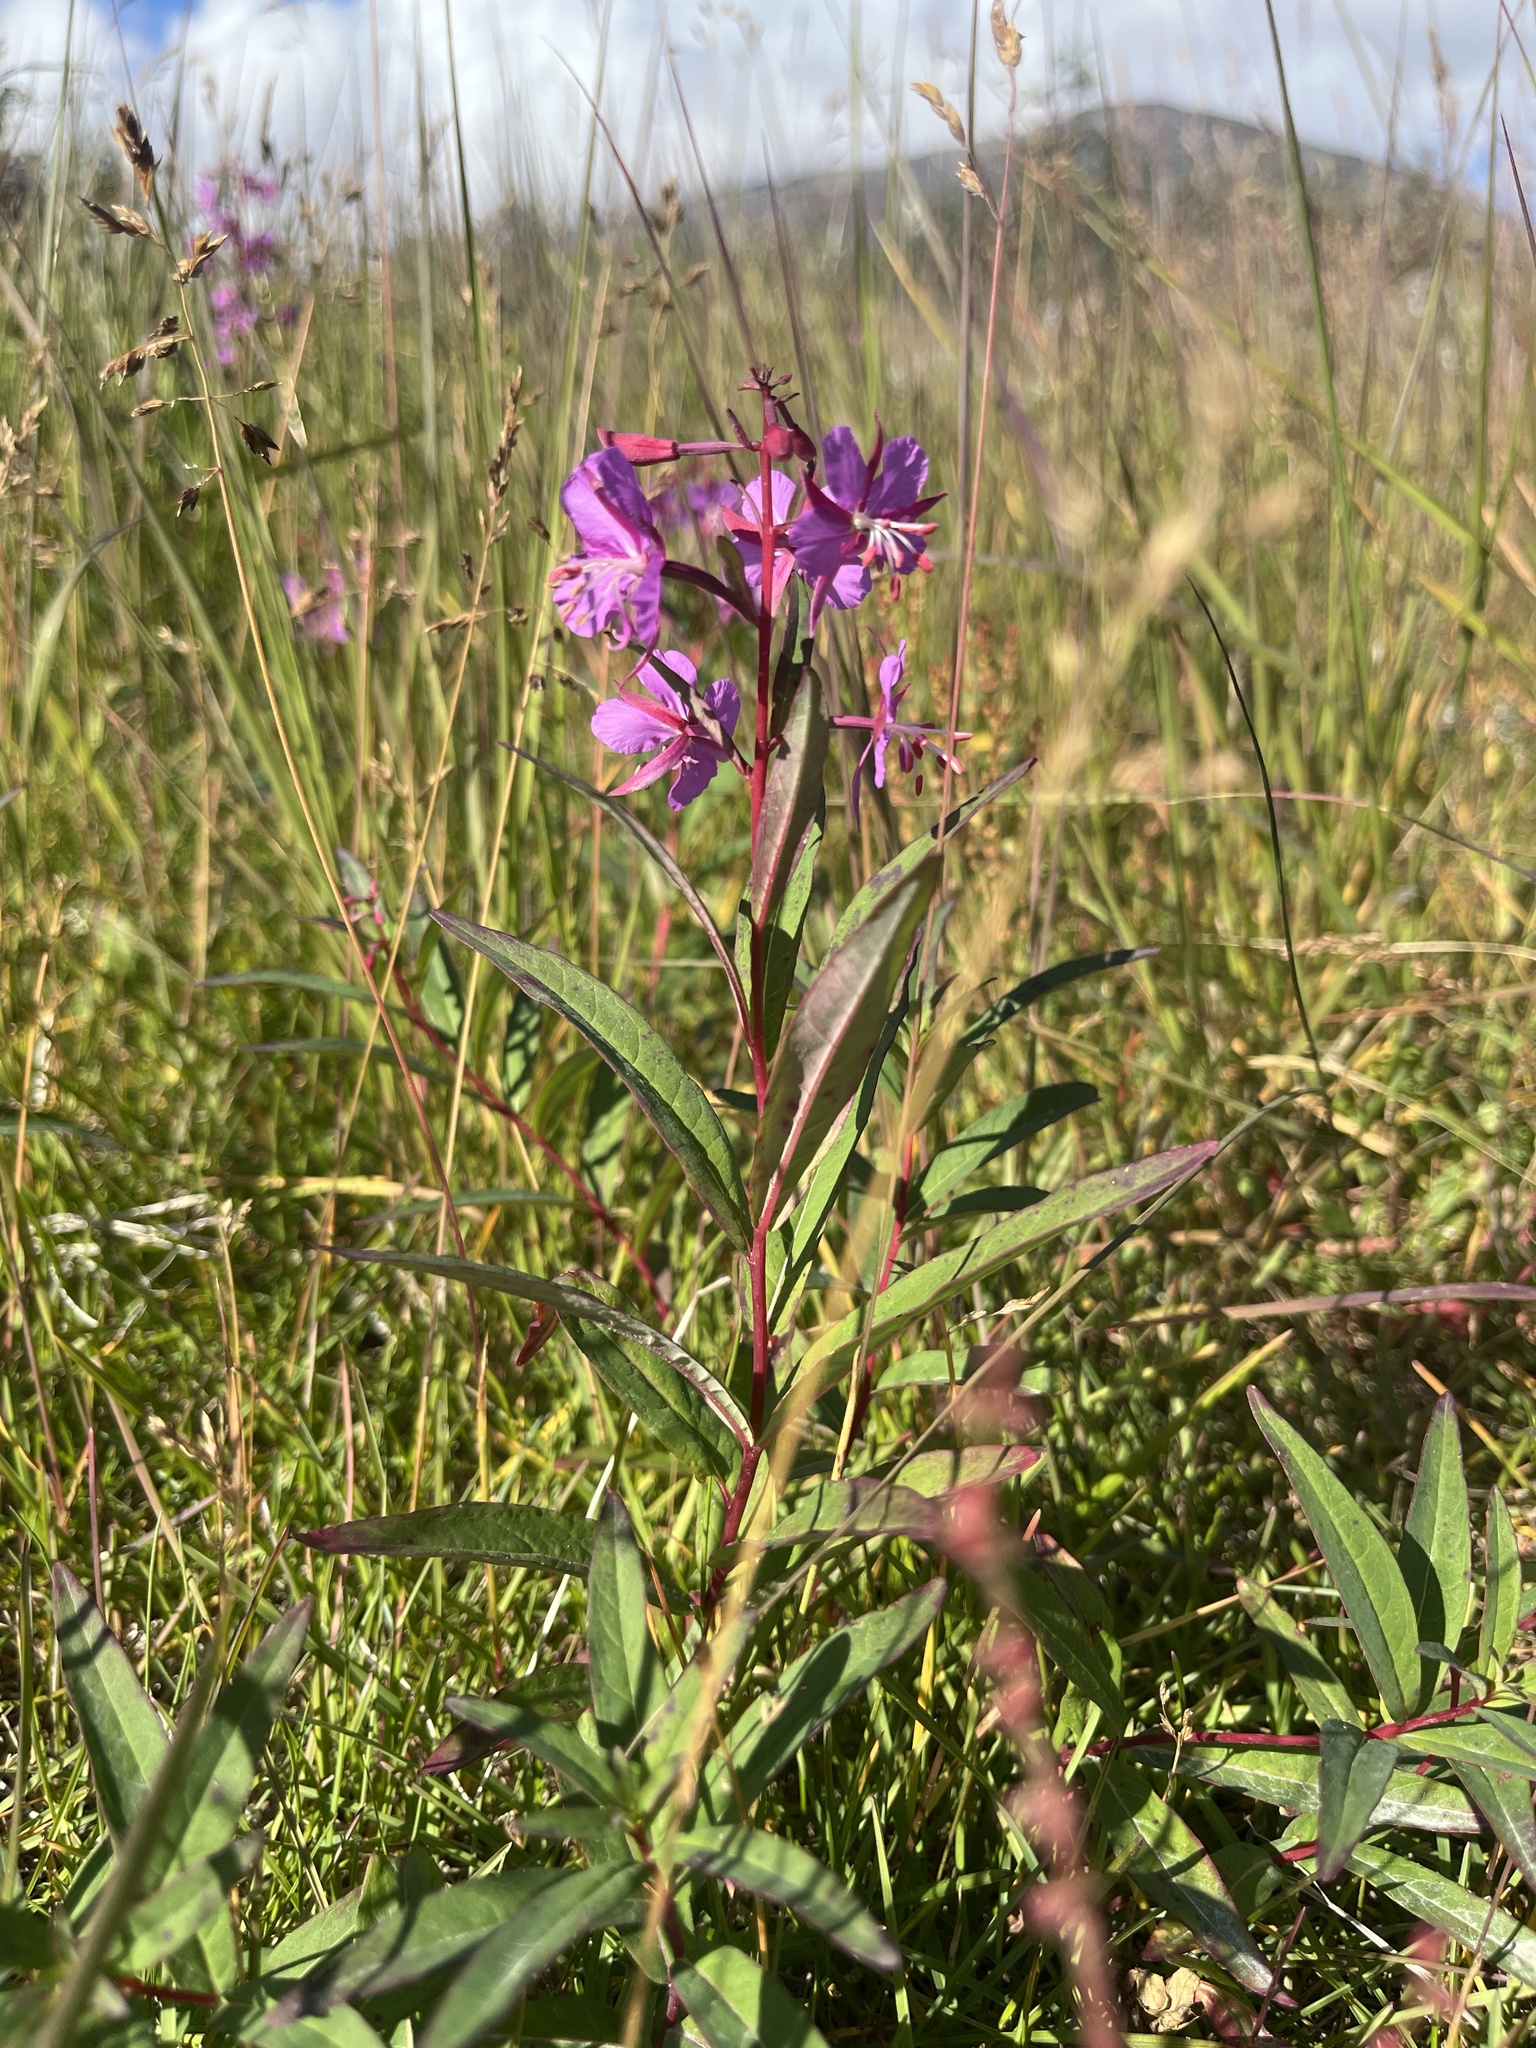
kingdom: Plantae
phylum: Tracheophyta
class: Magnoliopsida
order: Myrtales
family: Onagraceae
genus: Chamaenerion
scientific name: Chamaenerion angustifolium
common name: Fireweed
